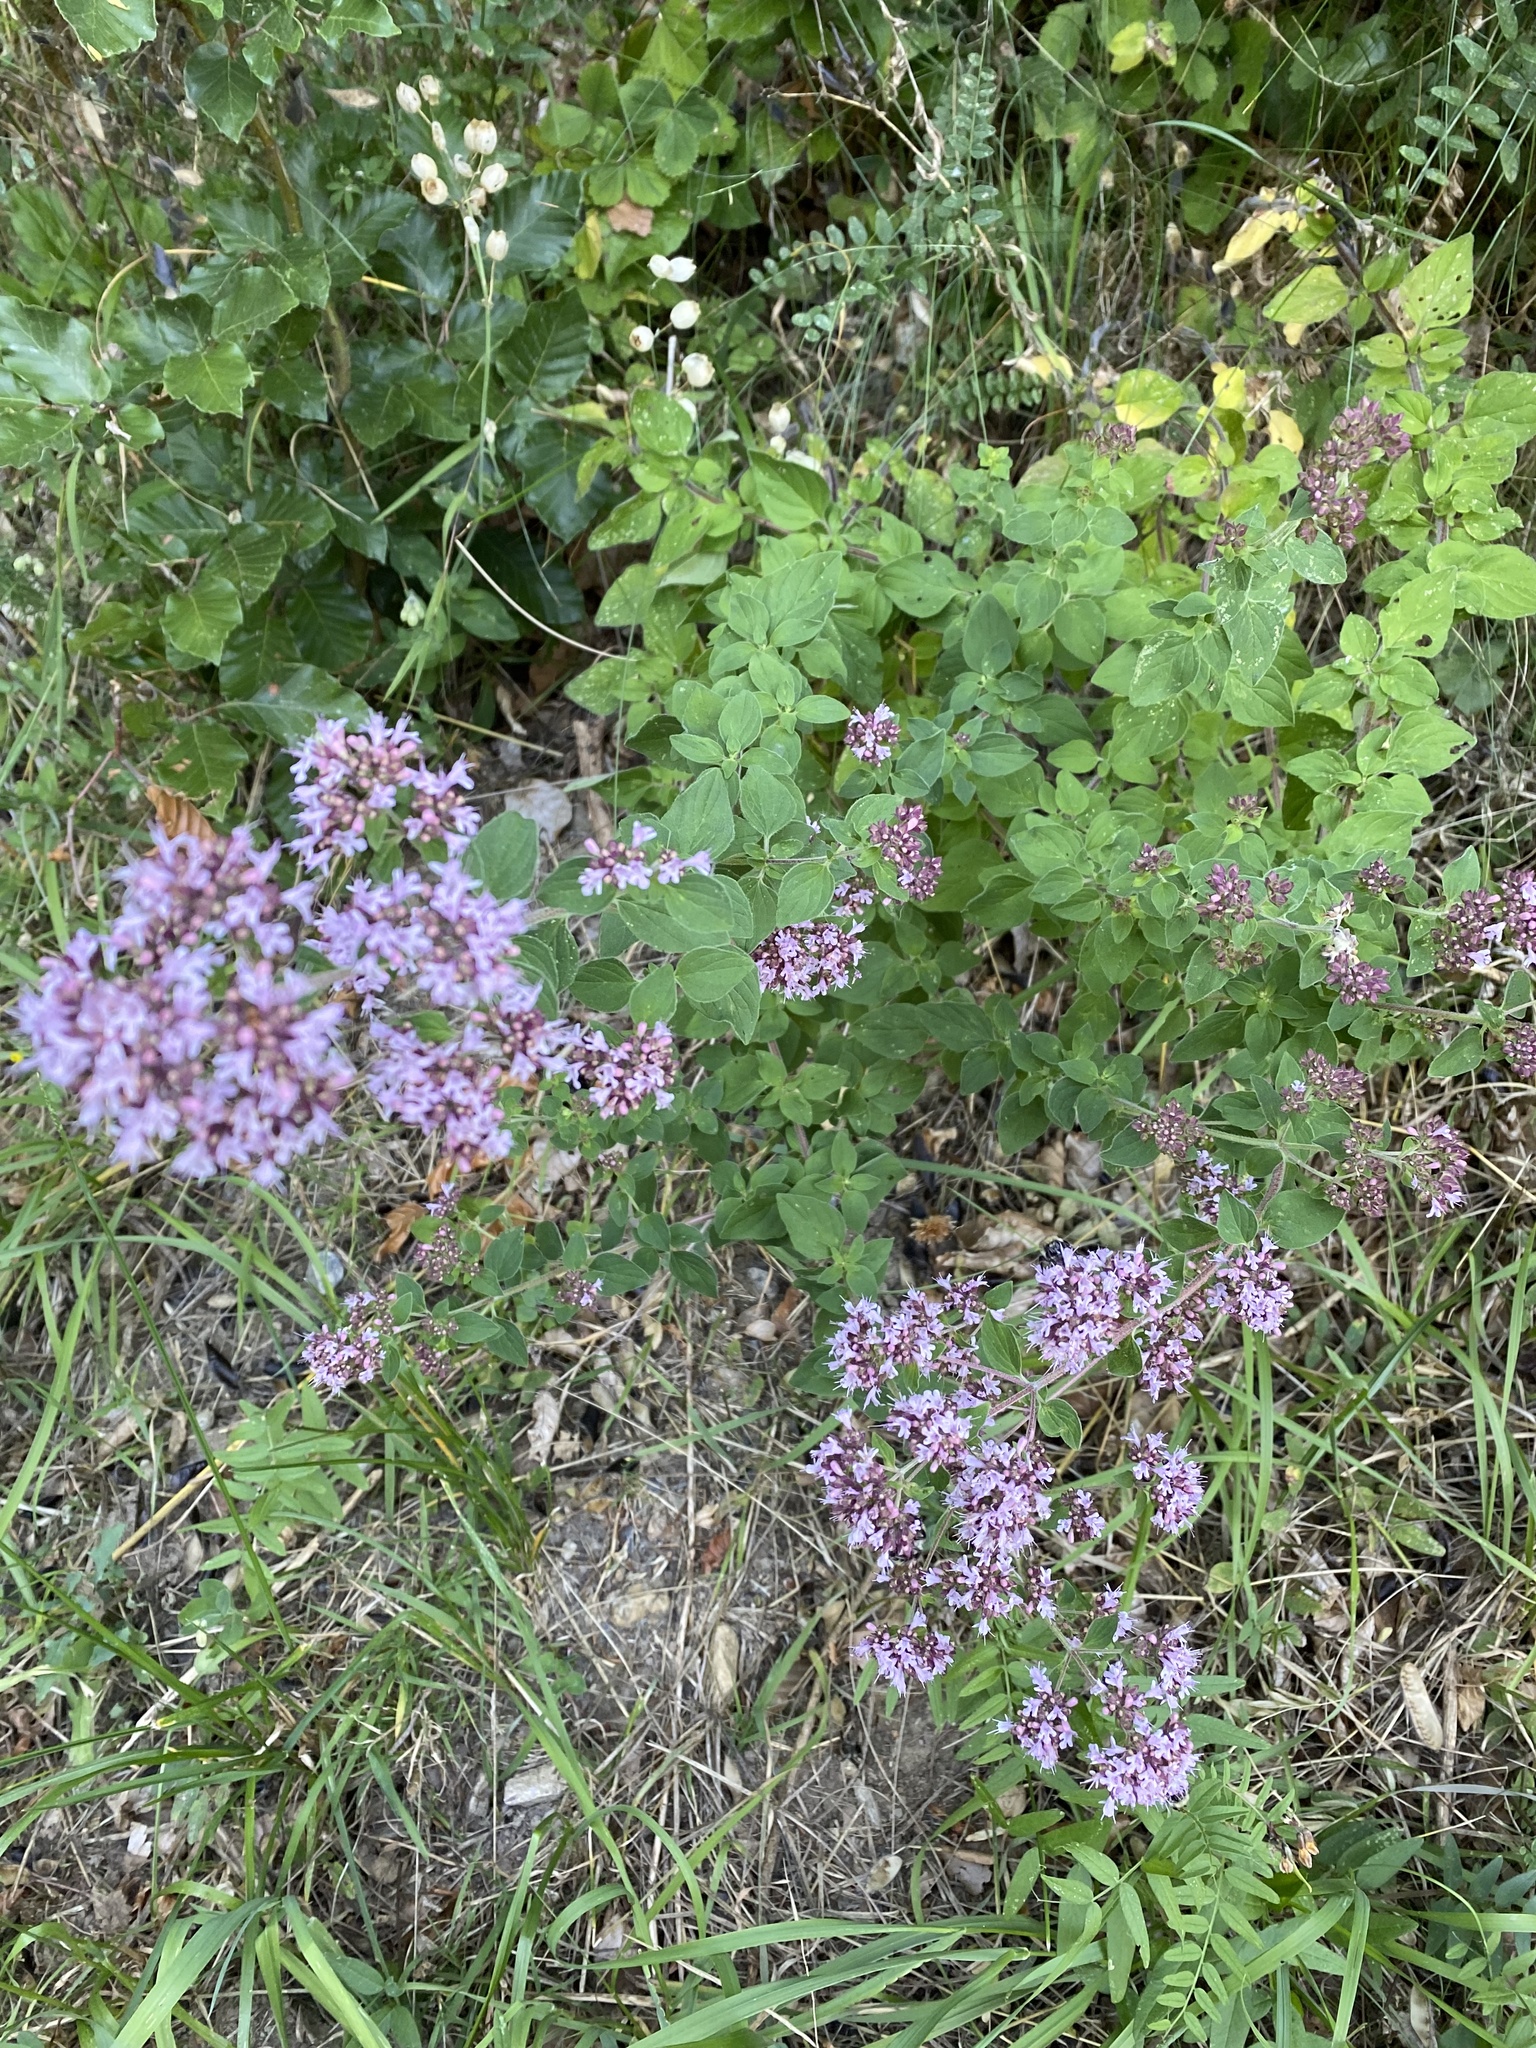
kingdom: Plantae
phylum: Tracheophyta
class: Magnoliopsida
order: Lamiales
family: Lamiaceae
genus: Origanum
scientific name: Origanum vulgare
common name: Wild marjoram
